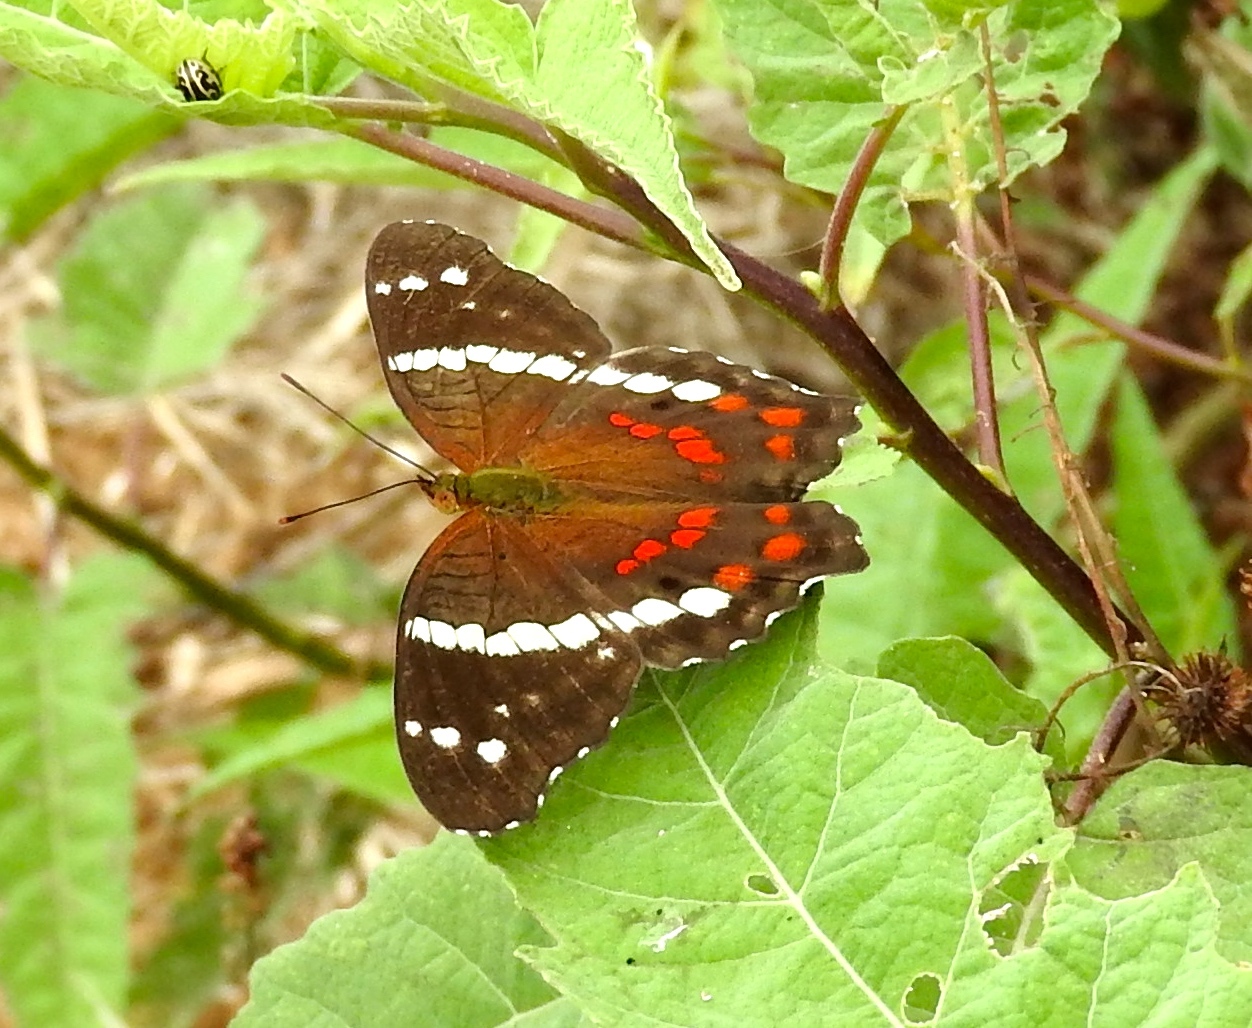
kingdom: Animalia
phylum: Arthropoda
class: Insecta
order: Lepidoptera
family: Nymphalidae
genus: Anartia
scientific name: Anartia fatima
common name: Banded peacock
